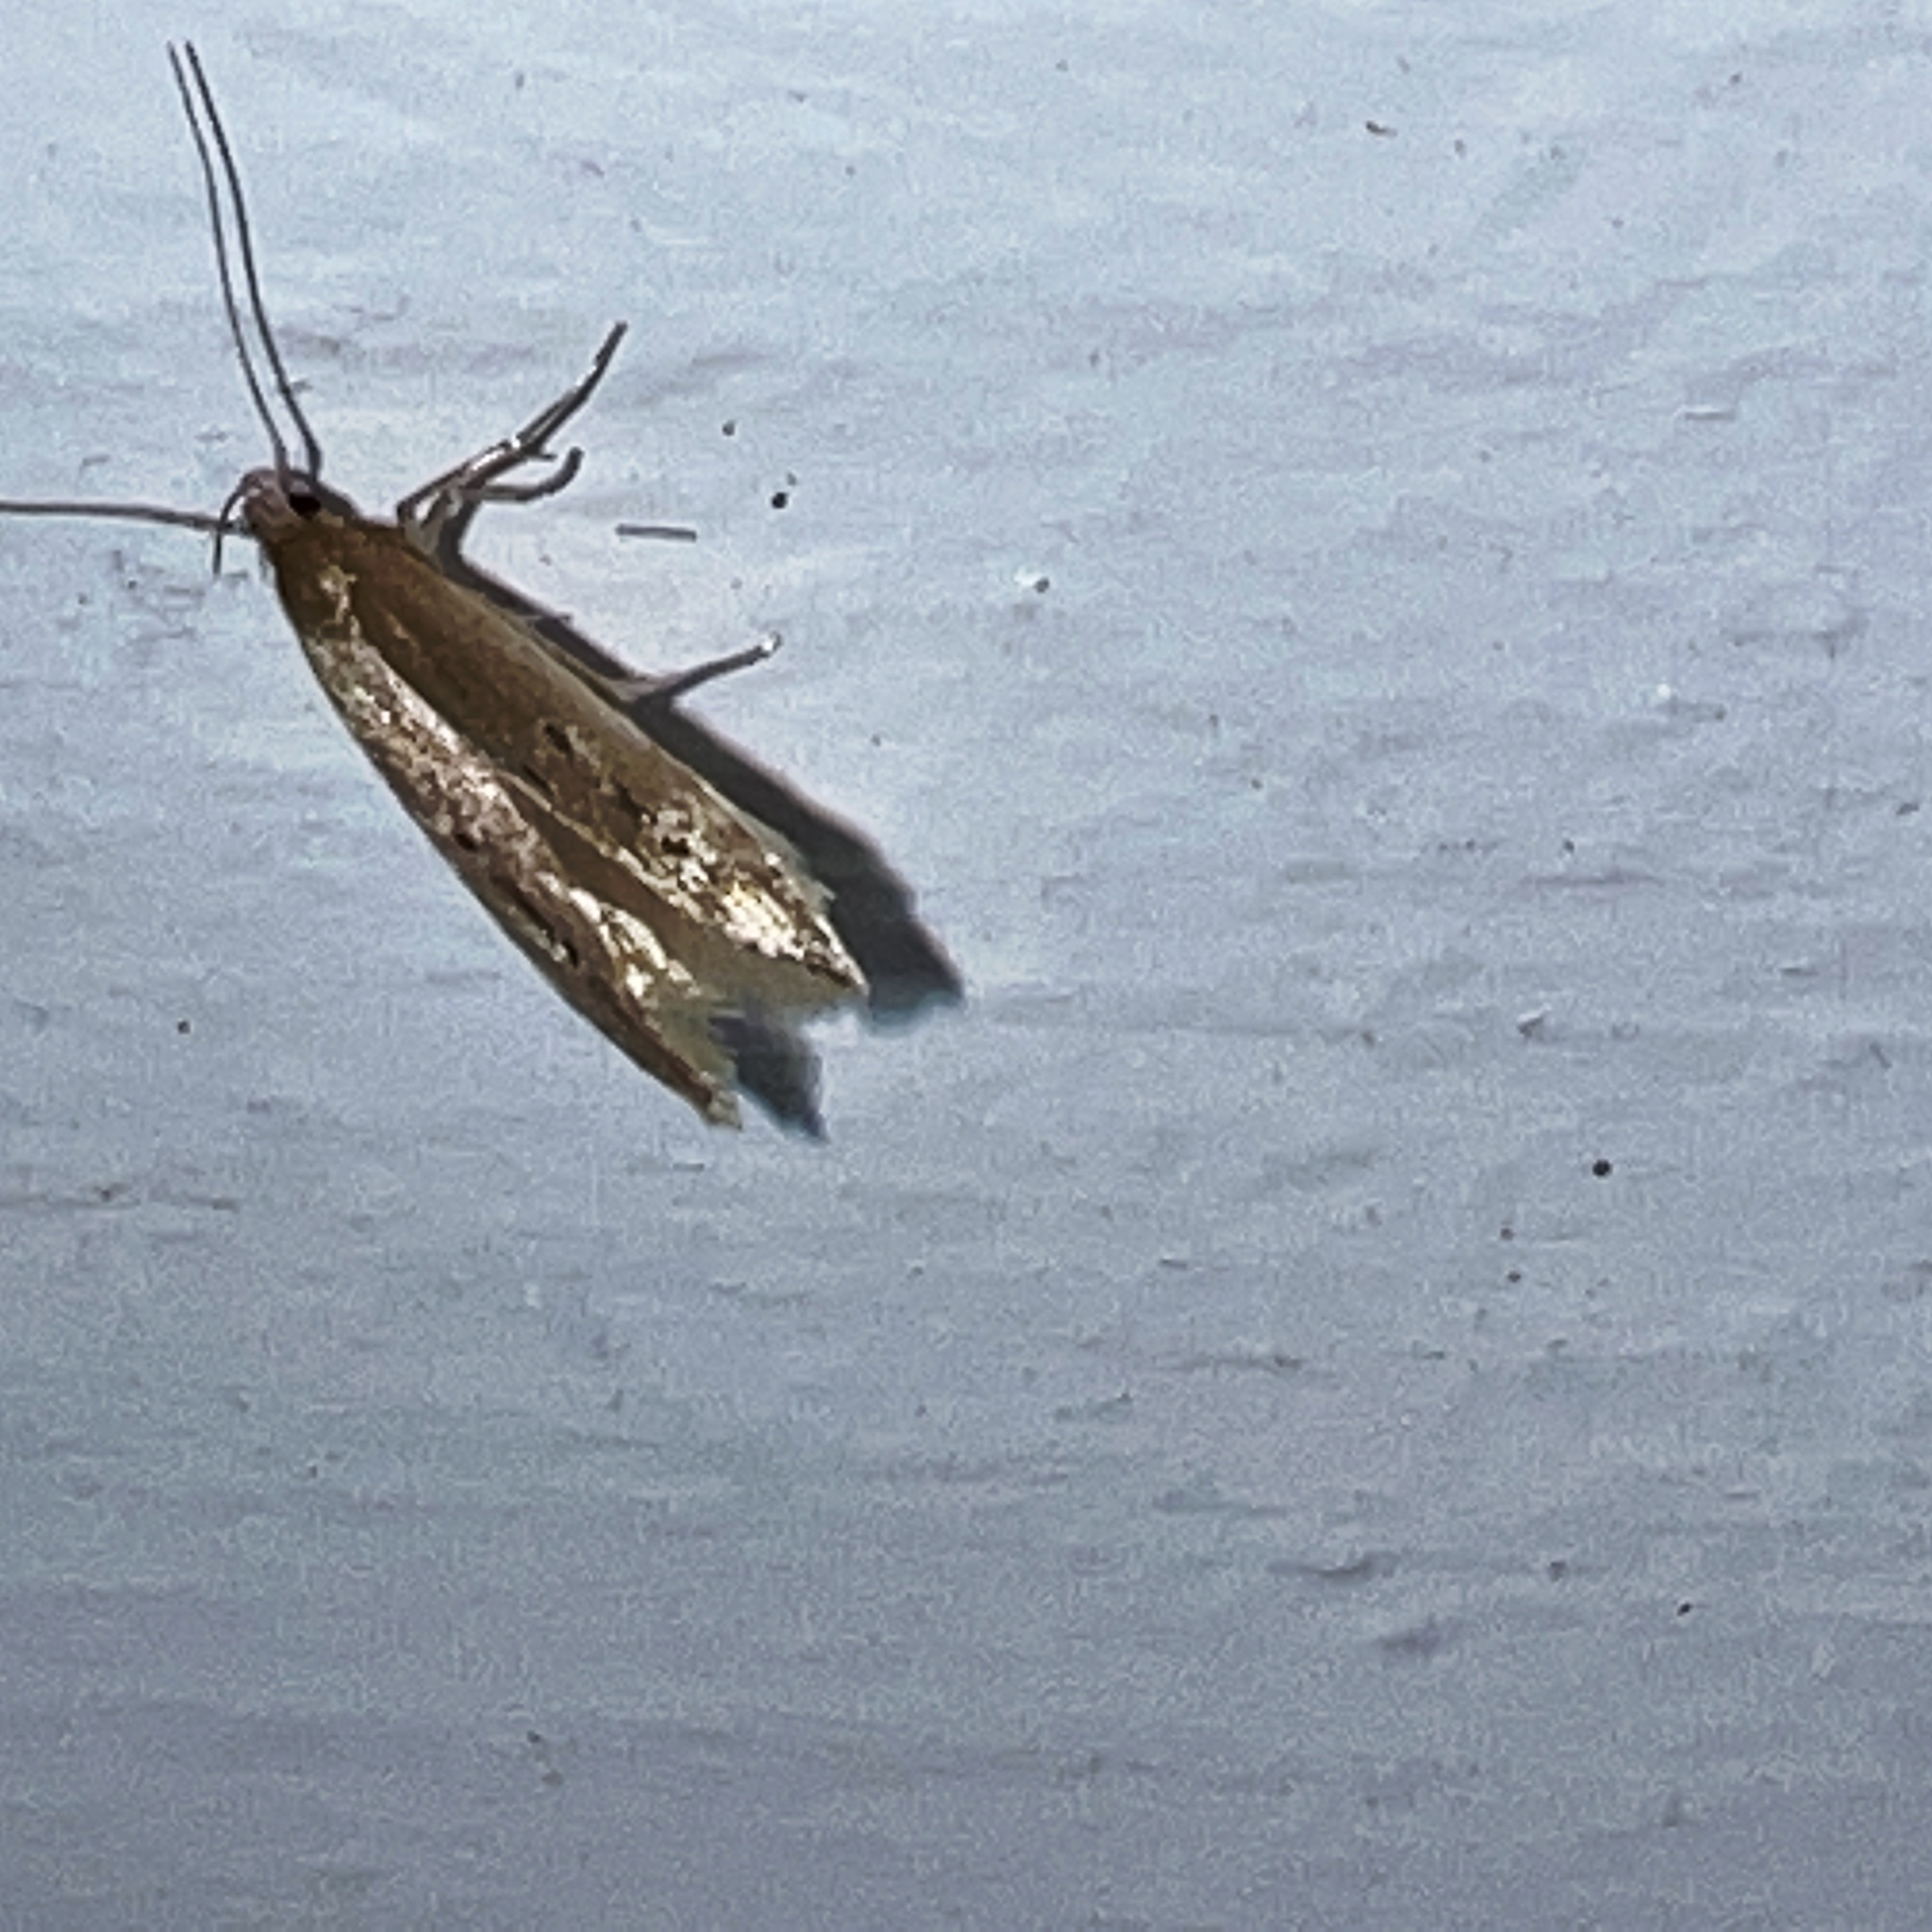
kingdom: Animalia
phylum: Arthropoda
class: Insecta
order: Lepidoptera
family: Cosmopterigidae
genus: Limnaecia
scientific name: Limnaecia phragmitella
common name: Bulrush cosmet
